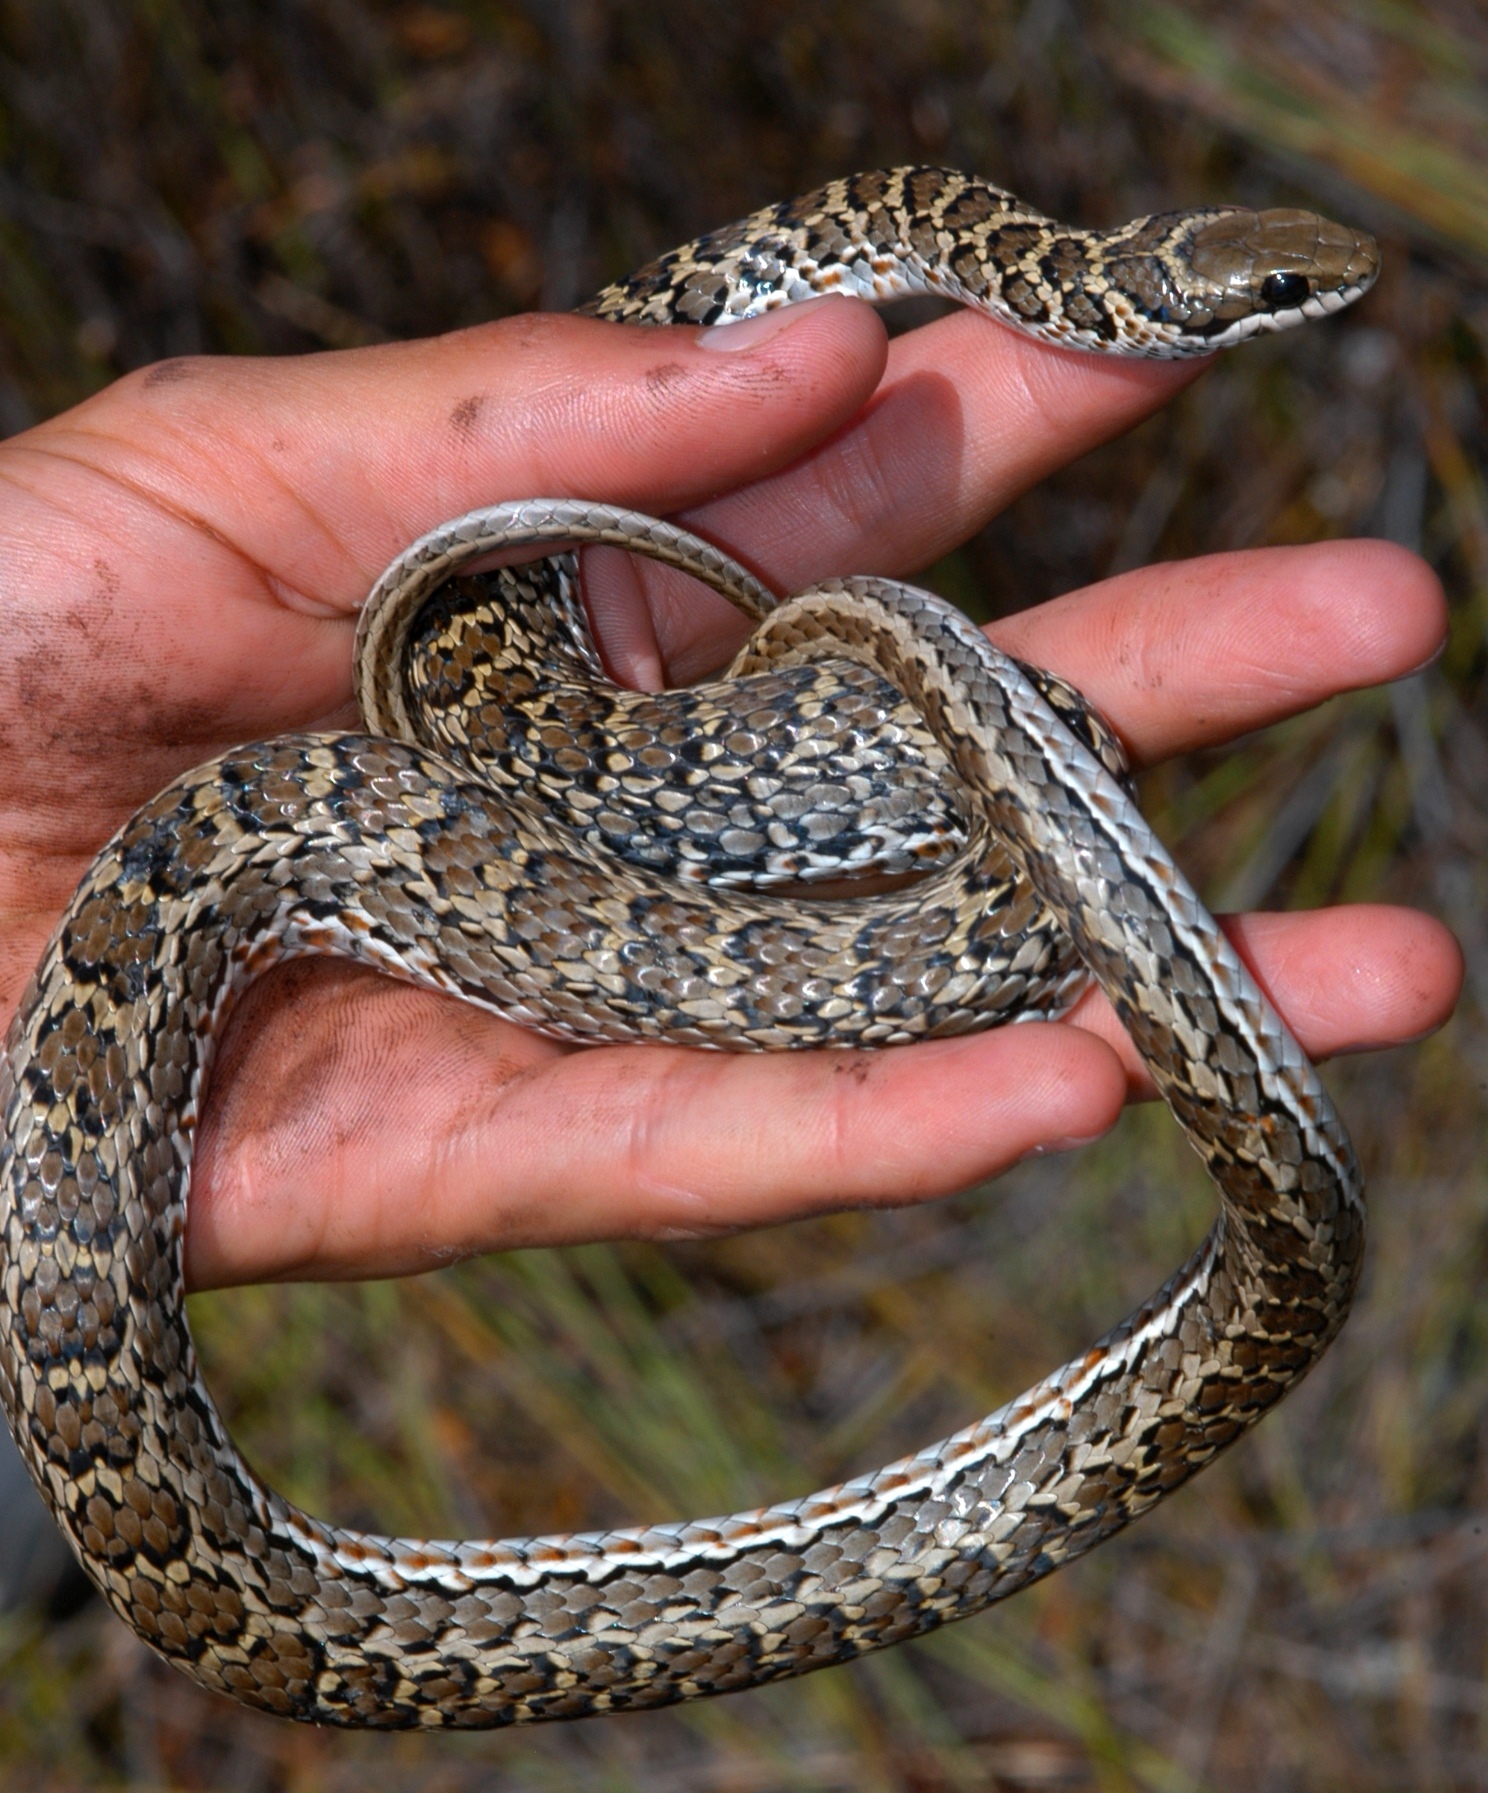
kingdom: Animalia
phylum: Chordata
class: Squamata
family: Psammophiidae
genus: Psammophylax
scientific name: Psammophylax rhombeatus
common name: Rhombic skaapsteker
